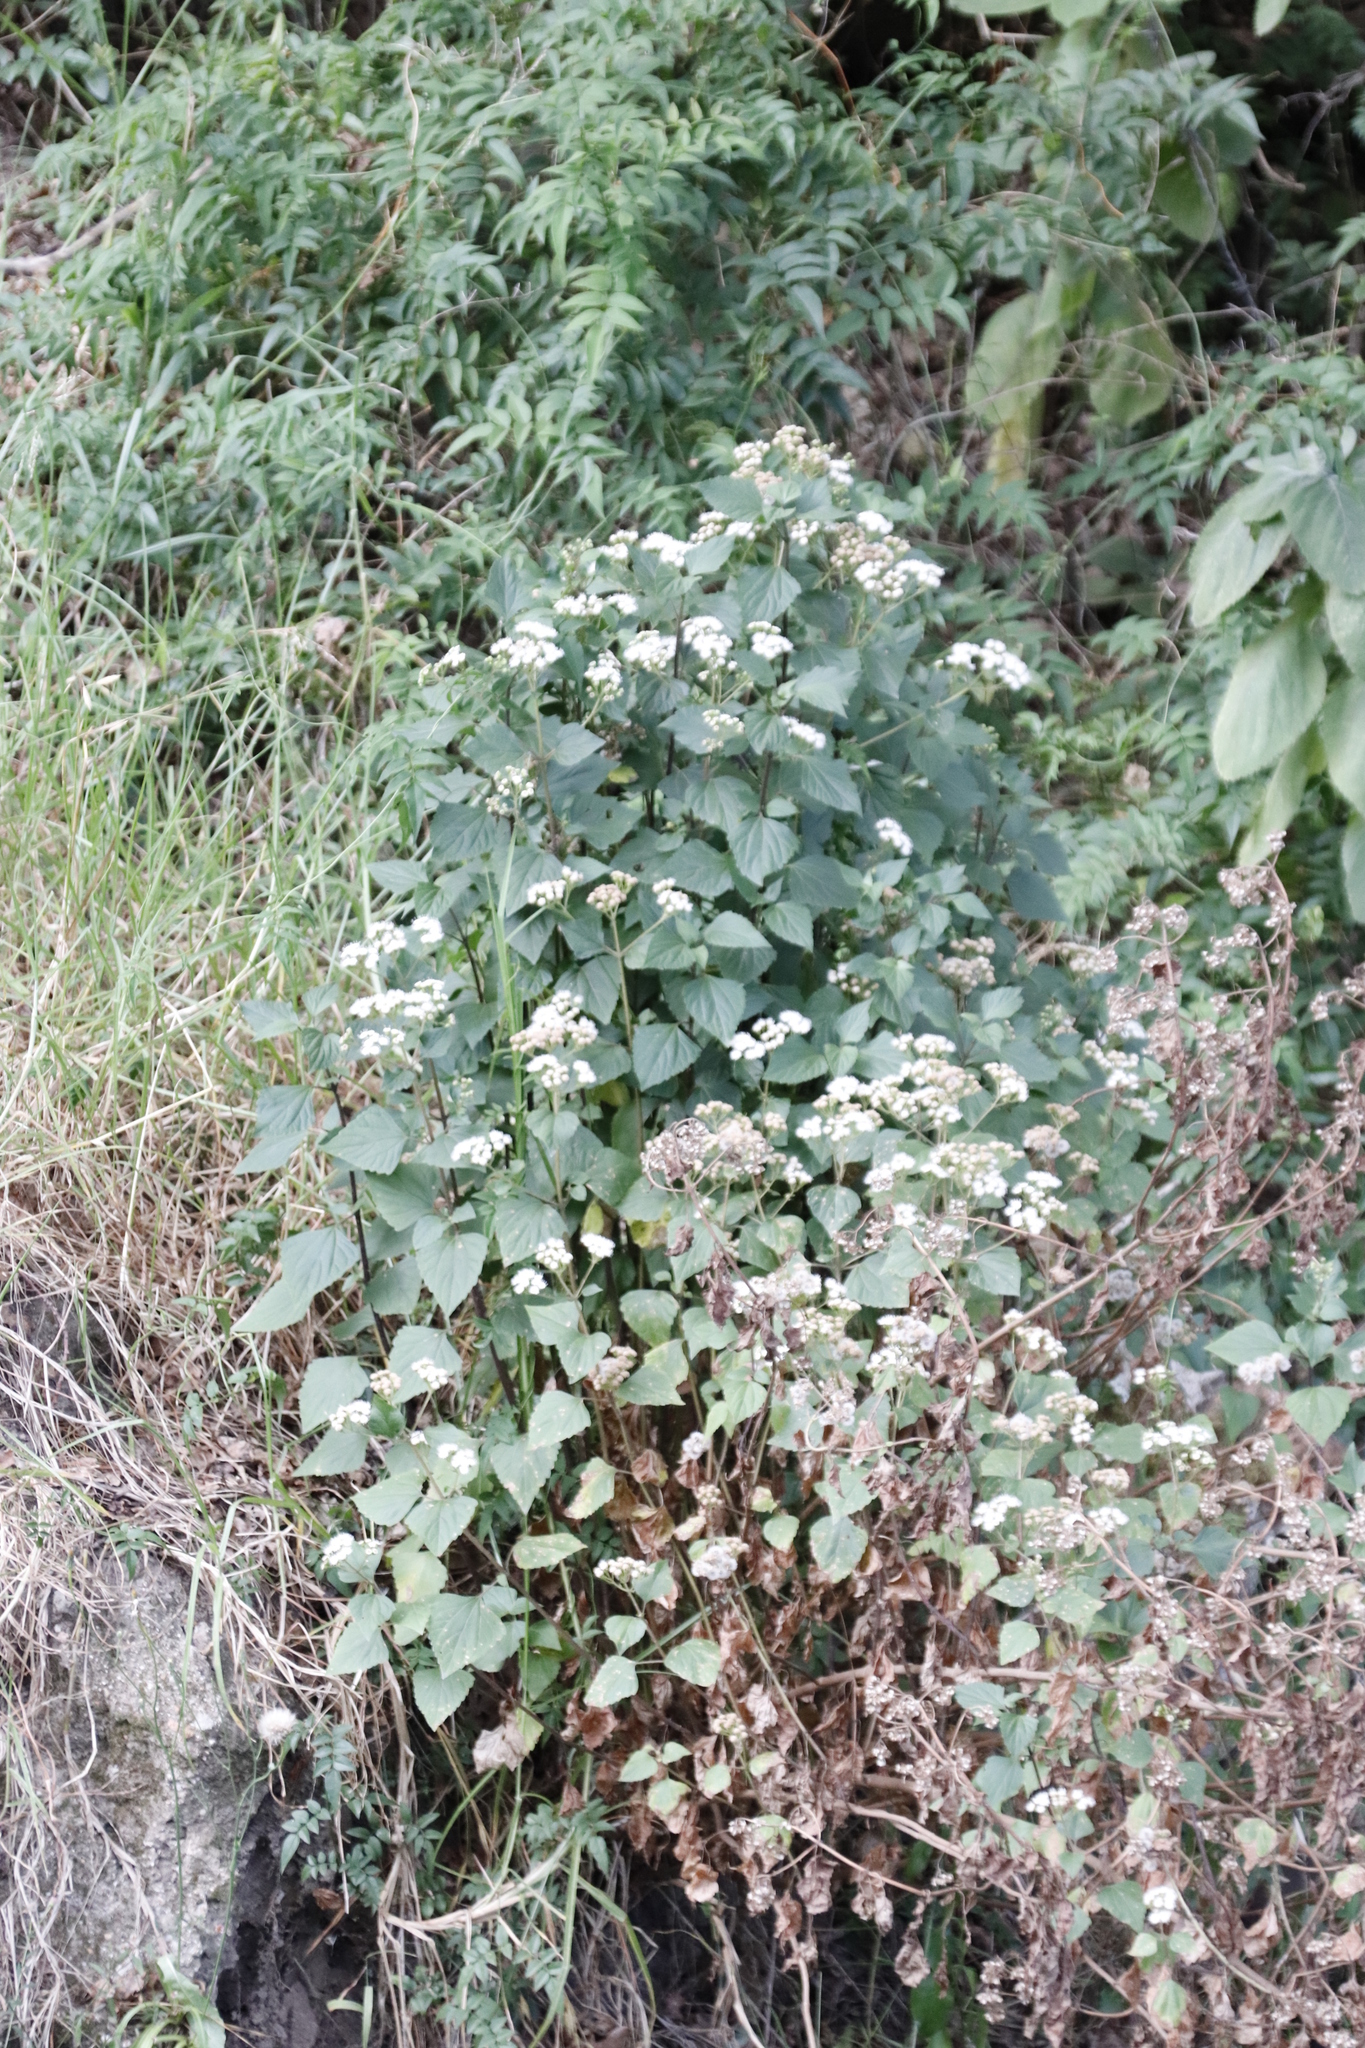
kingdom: Plantae
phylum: Tracheophyta
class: Magnoliopsida
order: Asterales
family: Asteraceae
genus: Ageratina
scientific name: Ageratina adenophora
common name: Sticky snakeroot
